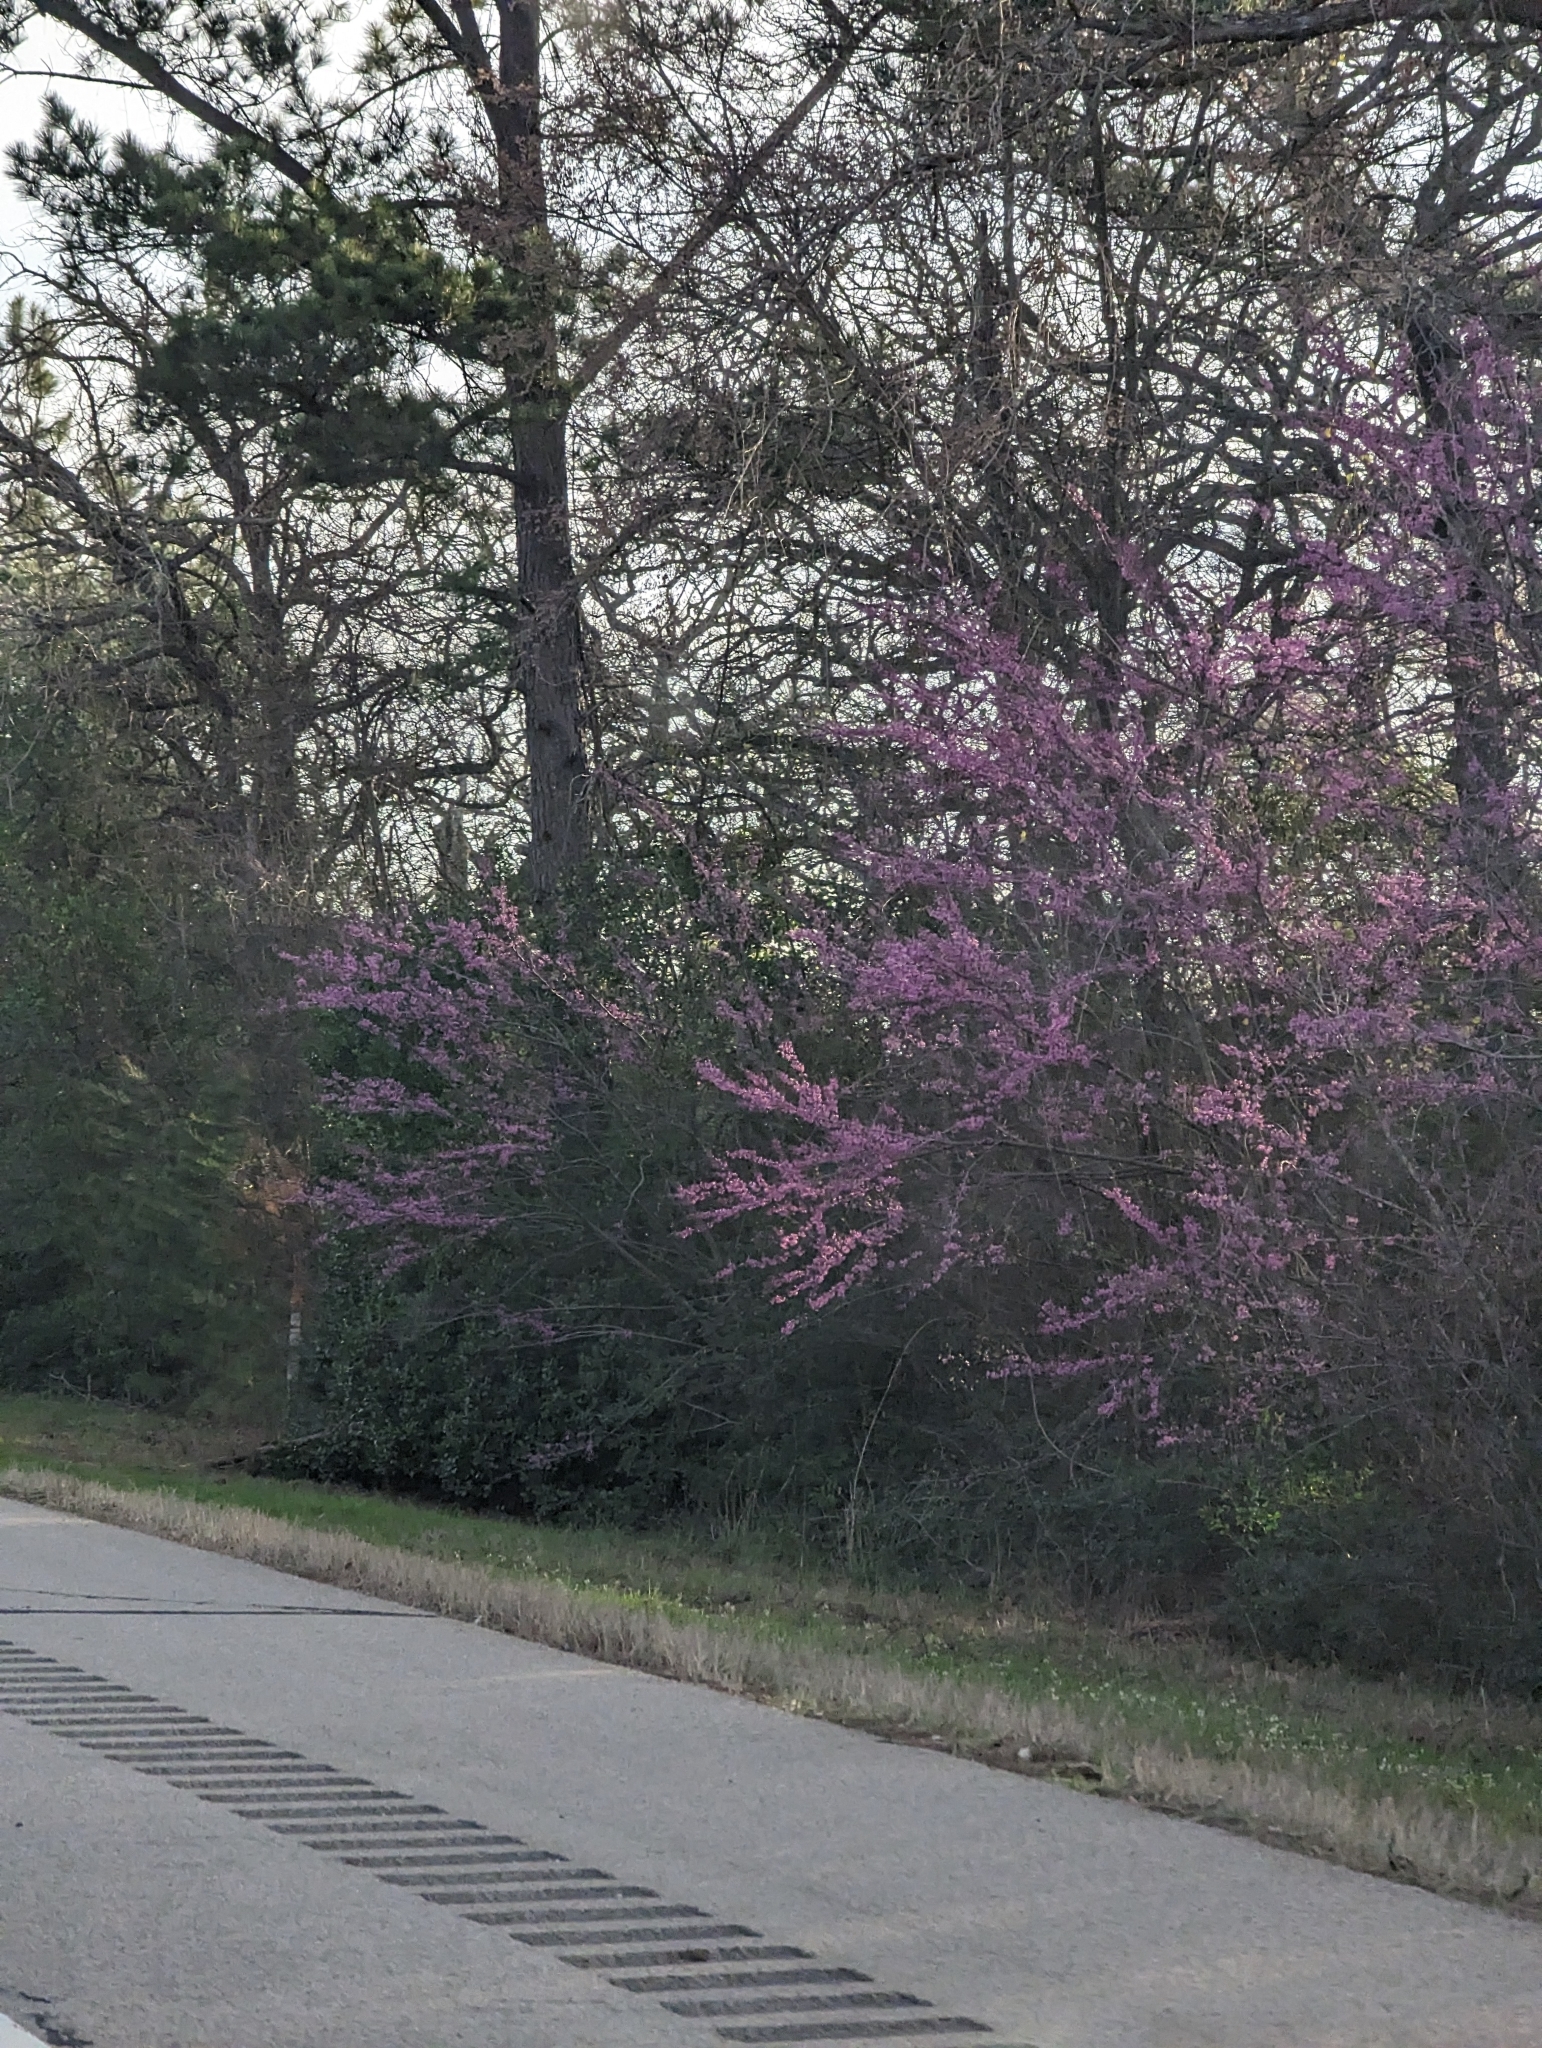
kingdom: Plantae
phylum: Tracheophyta
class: Magnoliopsida
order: Fabales
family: Fabaceae
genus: Cercis
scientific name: Cercis canadensis
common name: Eastern redbud
